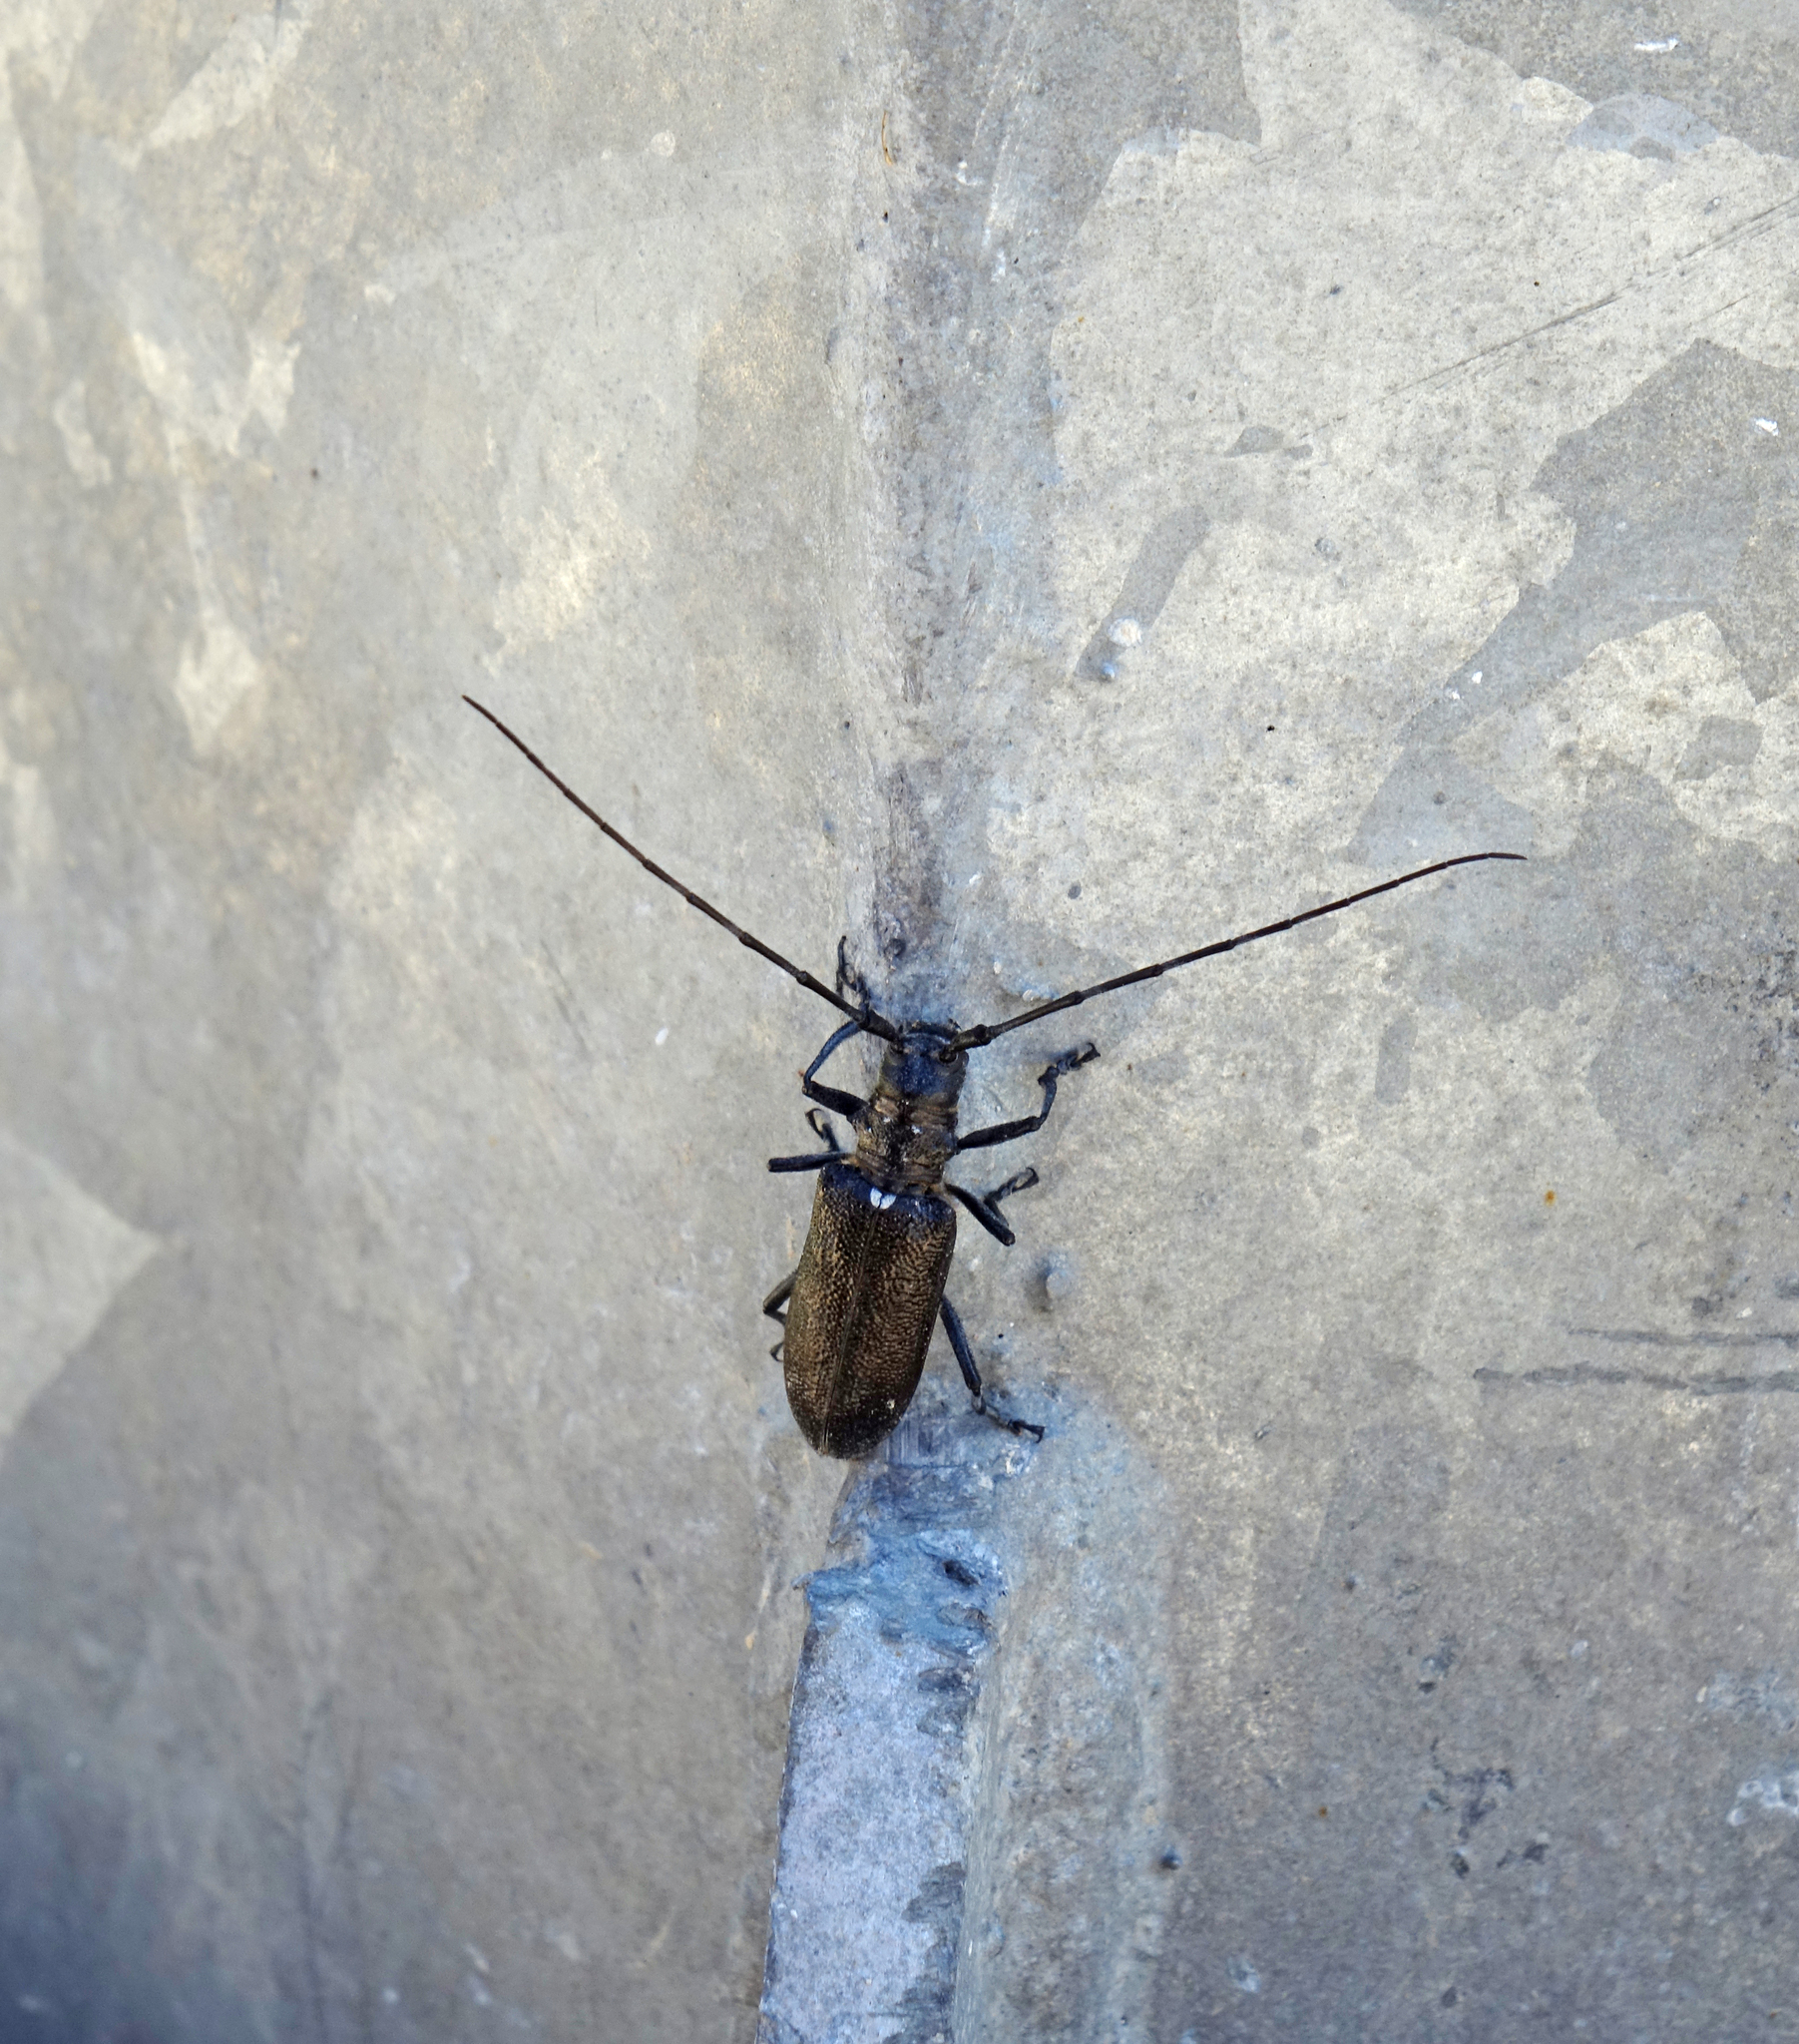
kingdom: Animalia
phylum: Arthropoda
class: Insecta
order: Coleoptera
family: Cerambycidae
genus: Monochamus
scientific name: Monochamus sutor
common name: Pine sawyer
